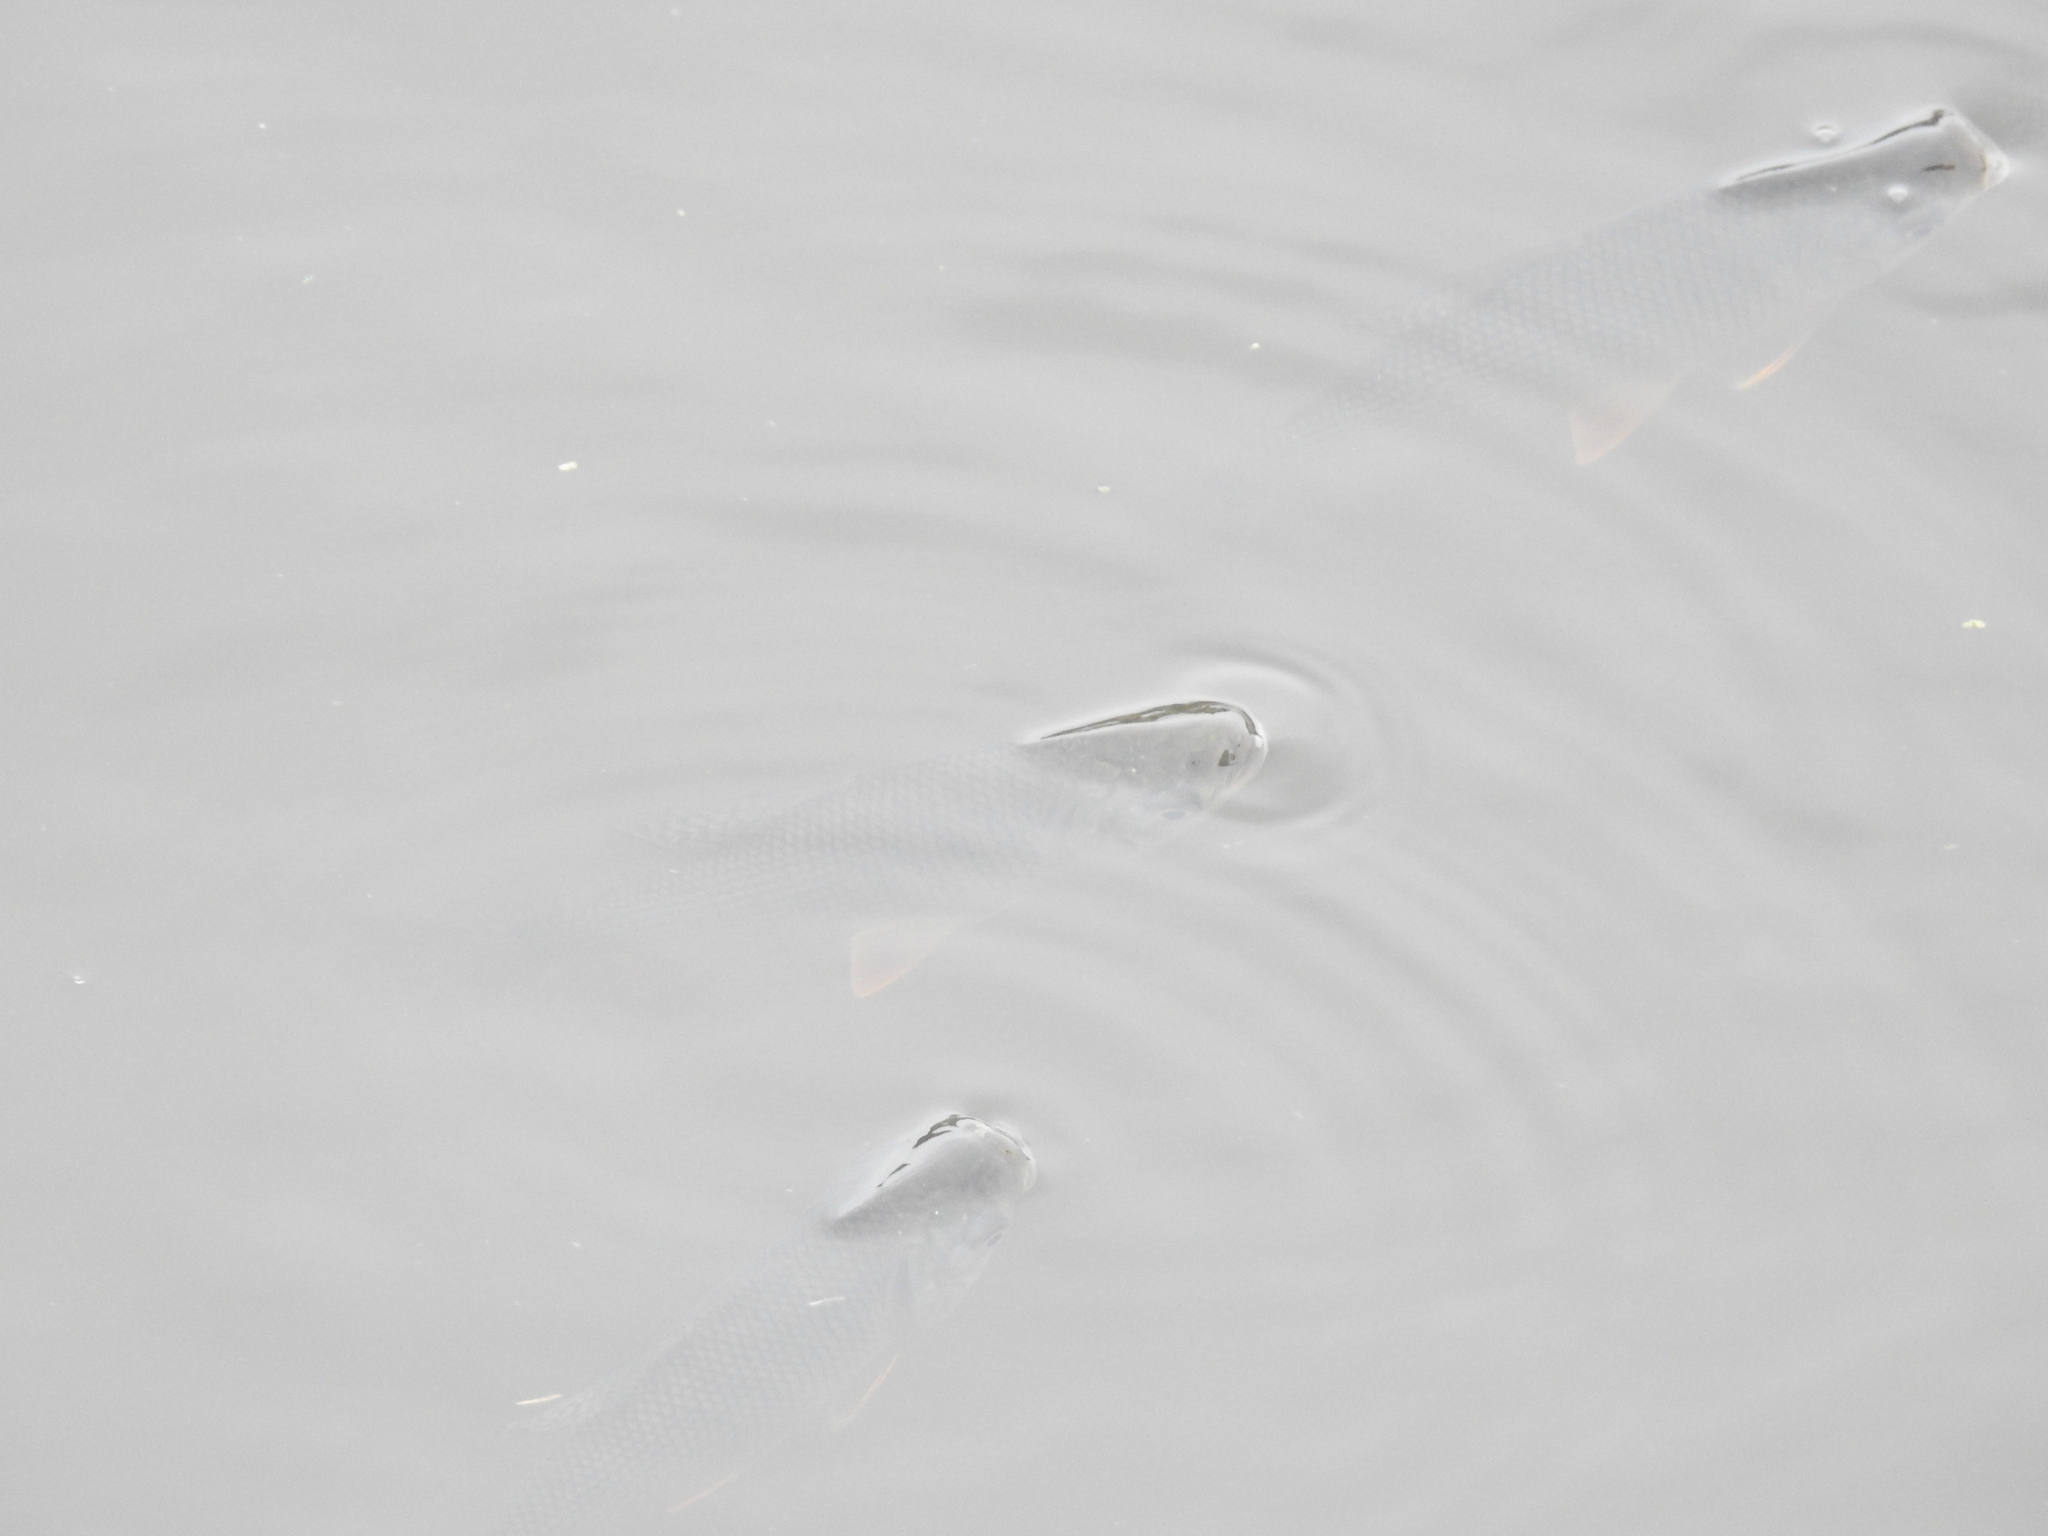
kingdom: Animalia
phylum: Chordata
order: Characiformes
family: Prochilodontidae
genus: Prochilodus
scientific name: Prochilodus lineatus
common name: Curimbata
